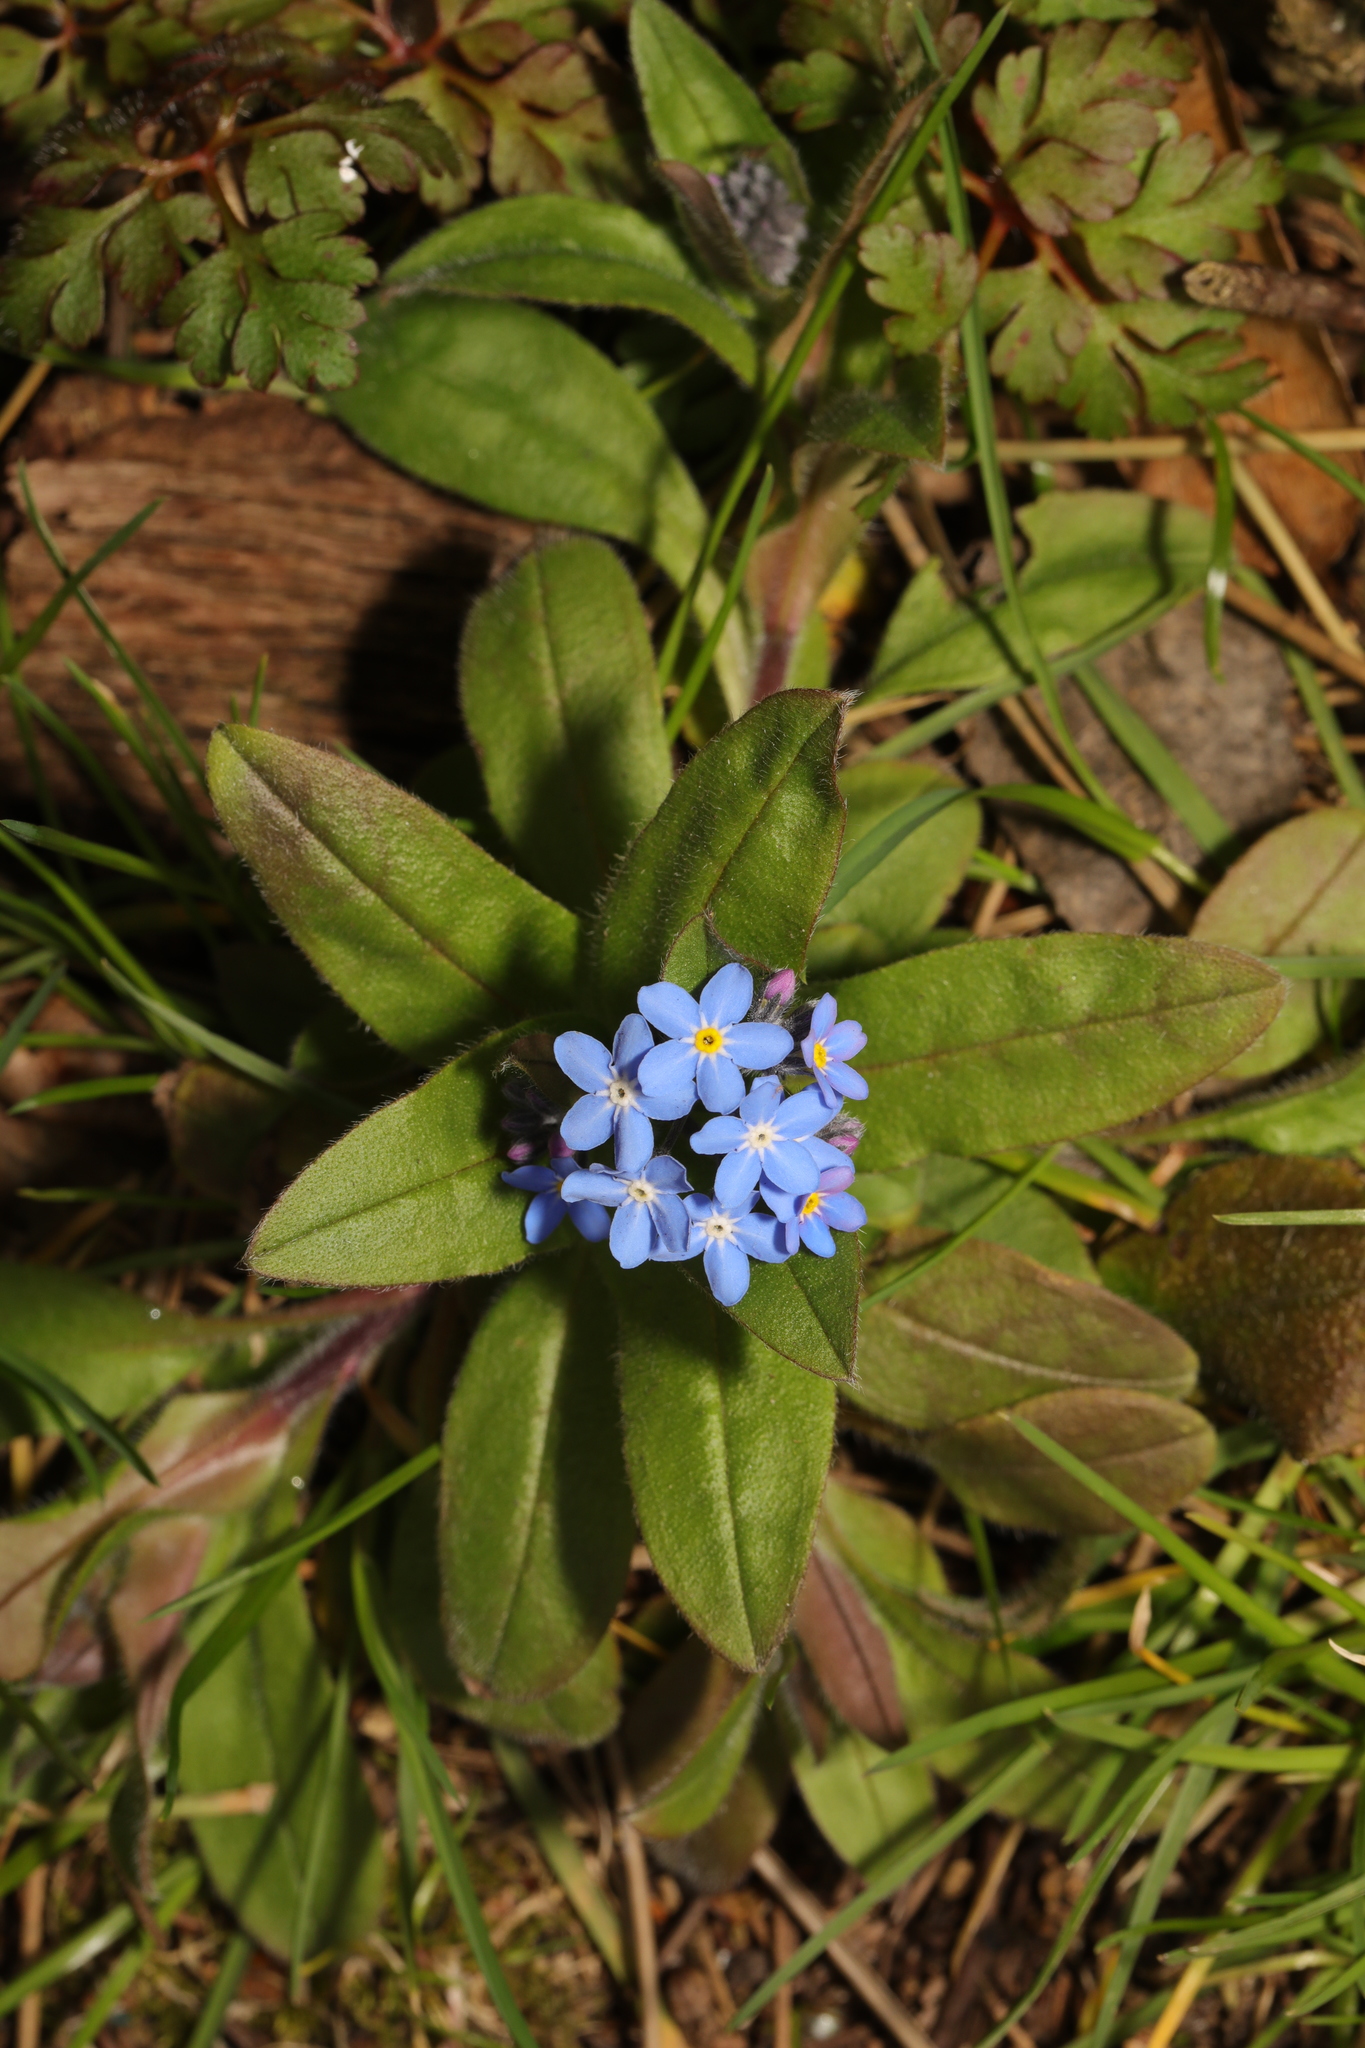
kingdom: Plantae
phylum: Tracheophyta
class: Magnoliopsida
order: Boraginales
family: Boraginaceae
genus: Myosotis
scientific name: Myosotis sylvatica
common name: Wood forget-me-not
